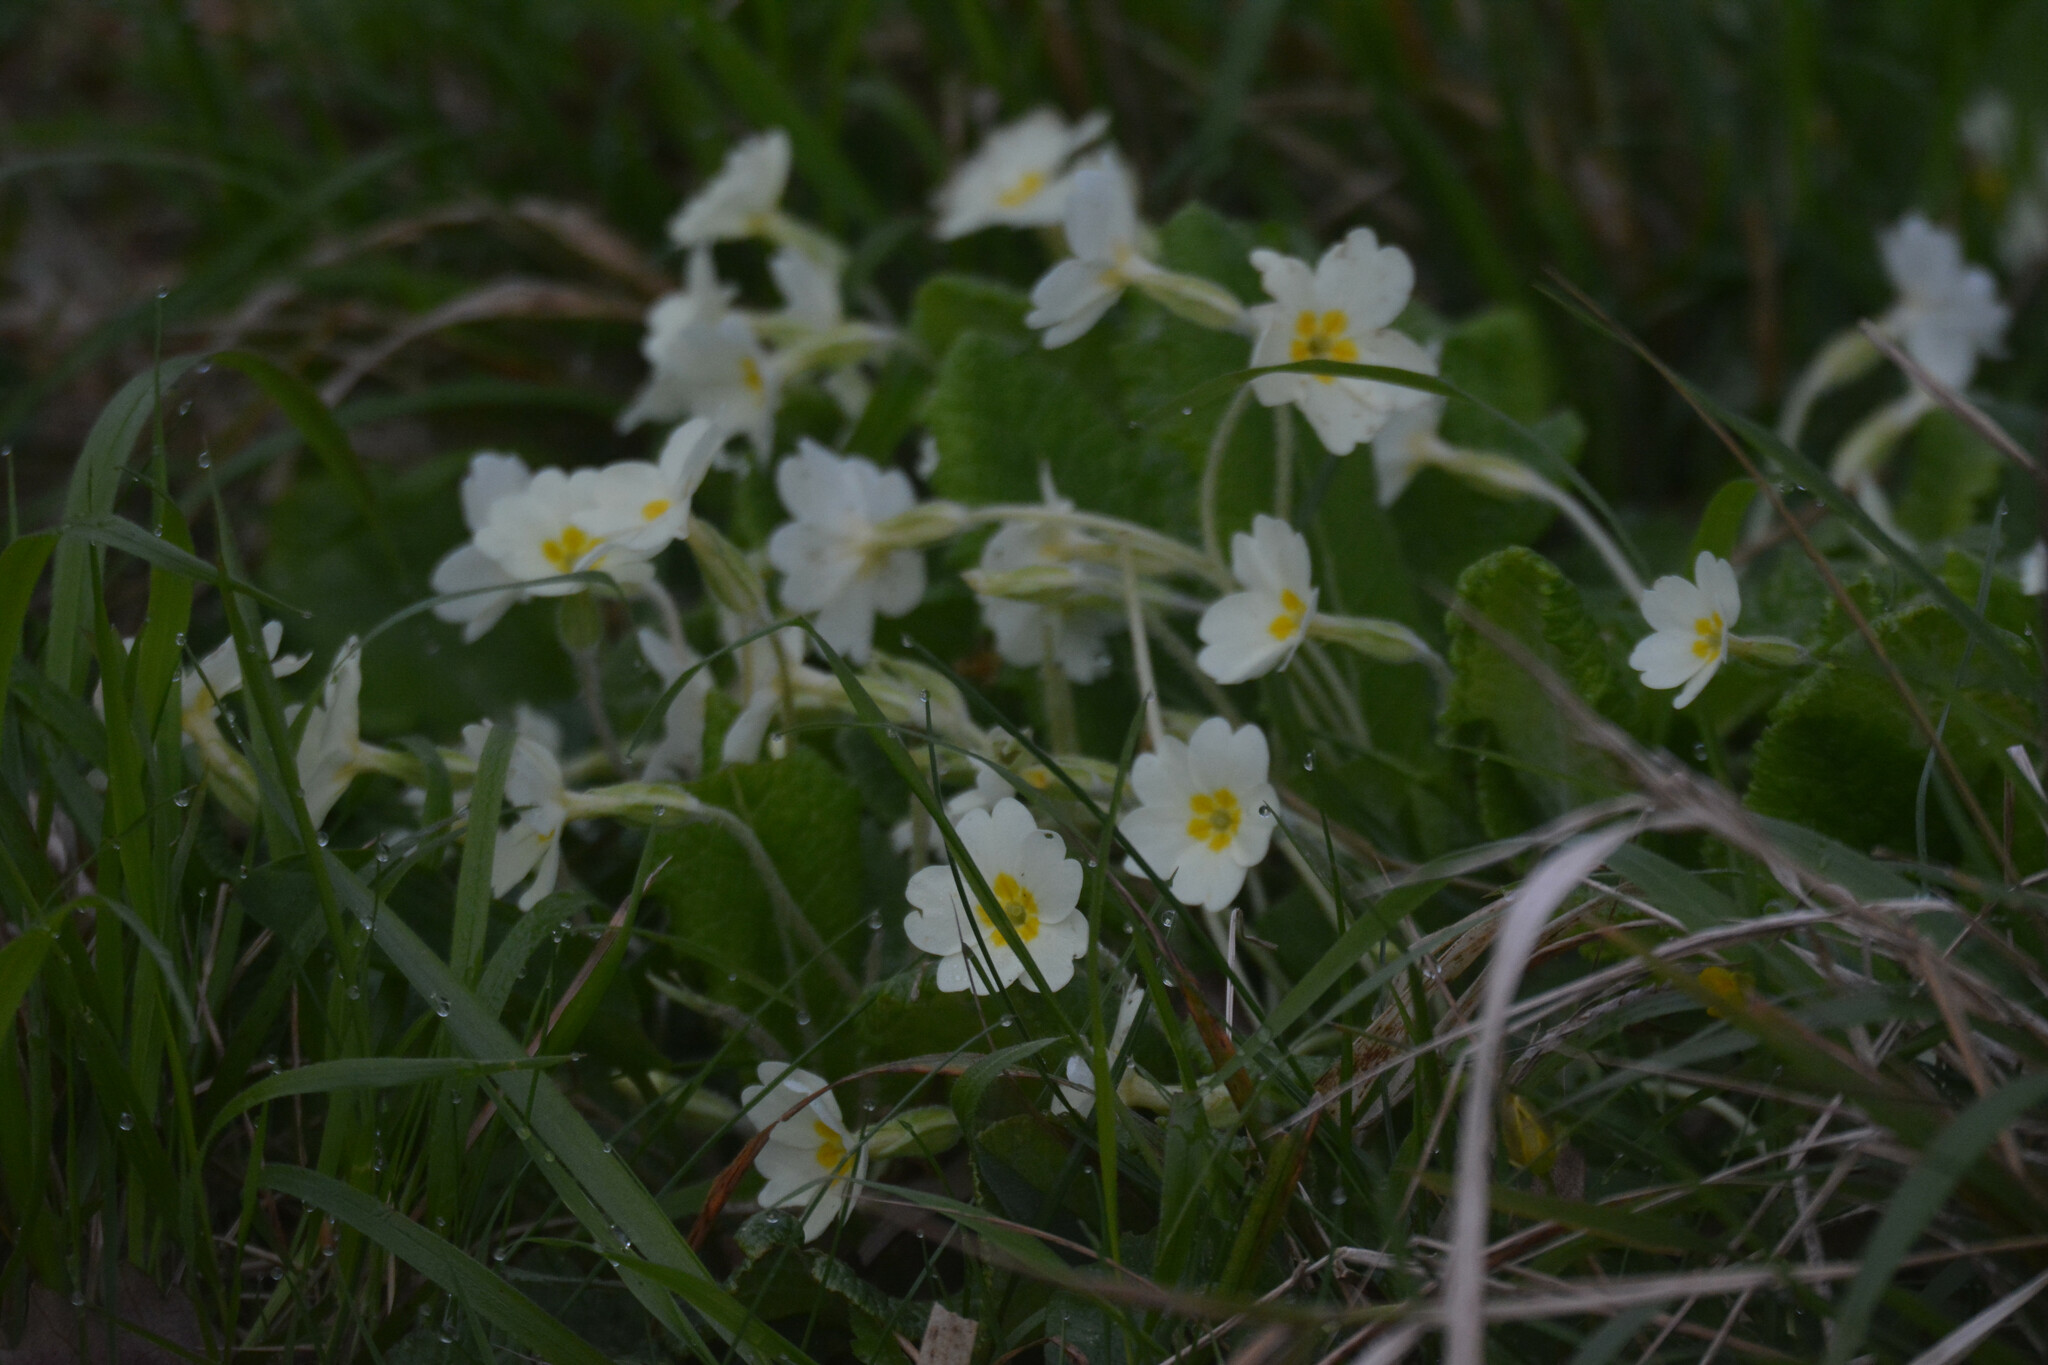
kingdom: Plantae
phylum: Tracheophyta
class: Magnoliopsida
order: Ericales
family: Primulaceae
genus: Primula
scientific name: Primula vulgaris
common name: Primrose
